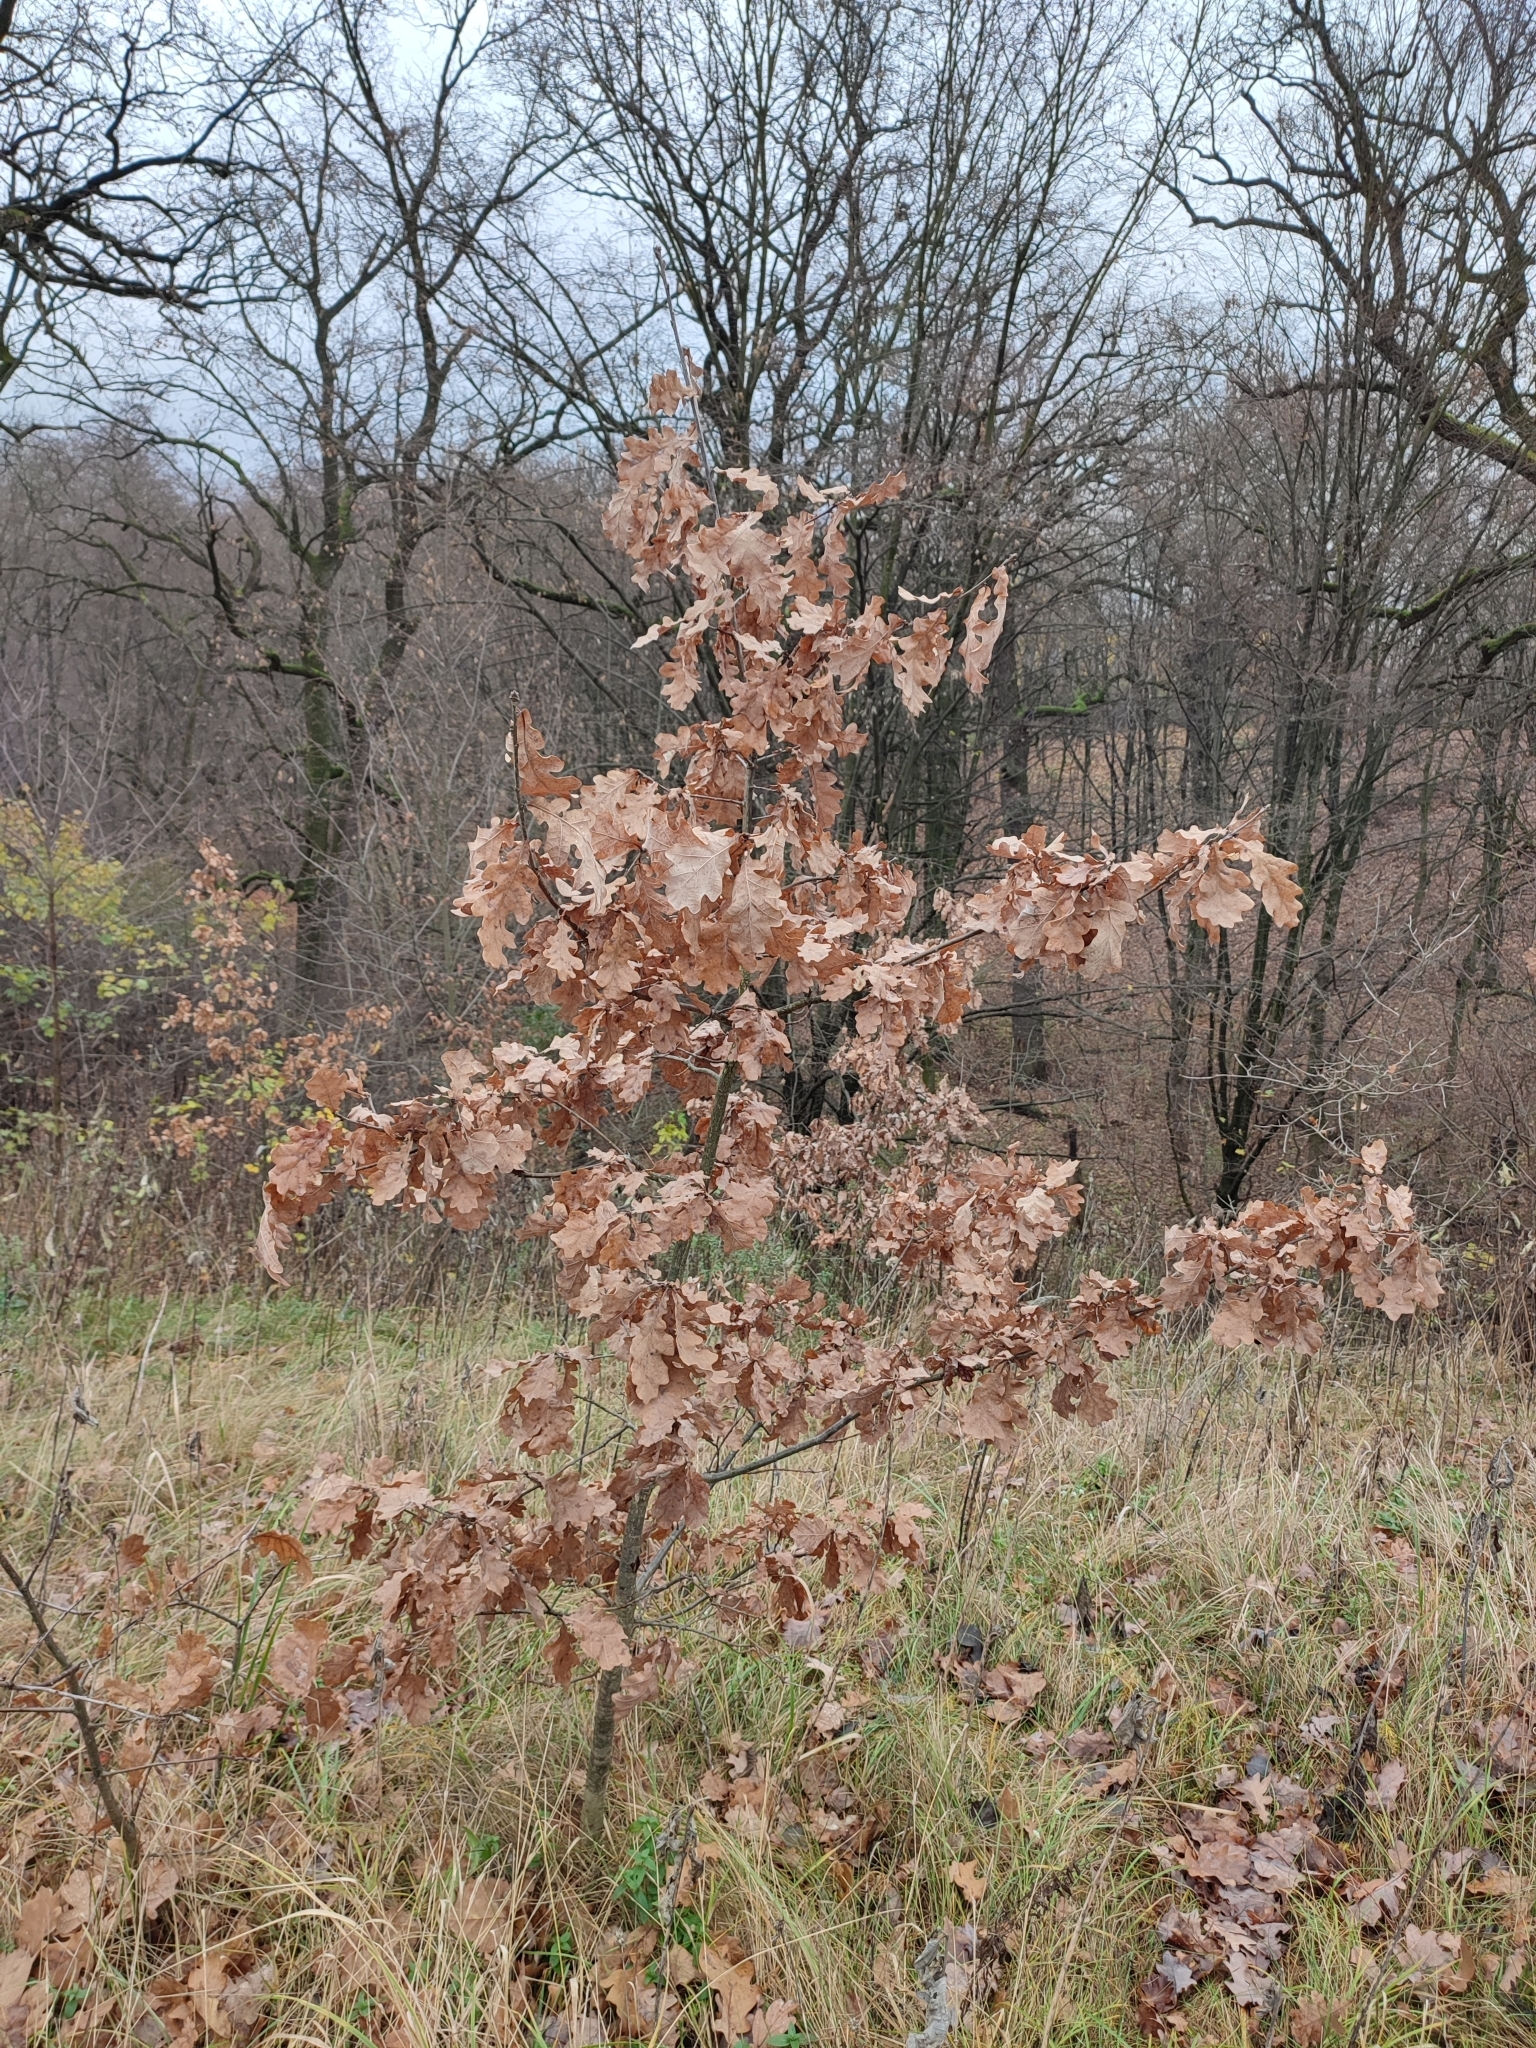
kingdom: Plantae
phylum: Tracheophyta
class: Magnoliopsida
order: Fagales
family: Fagaceae
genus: Quercus
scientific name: Quercus robur
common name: Pedunculate oak
